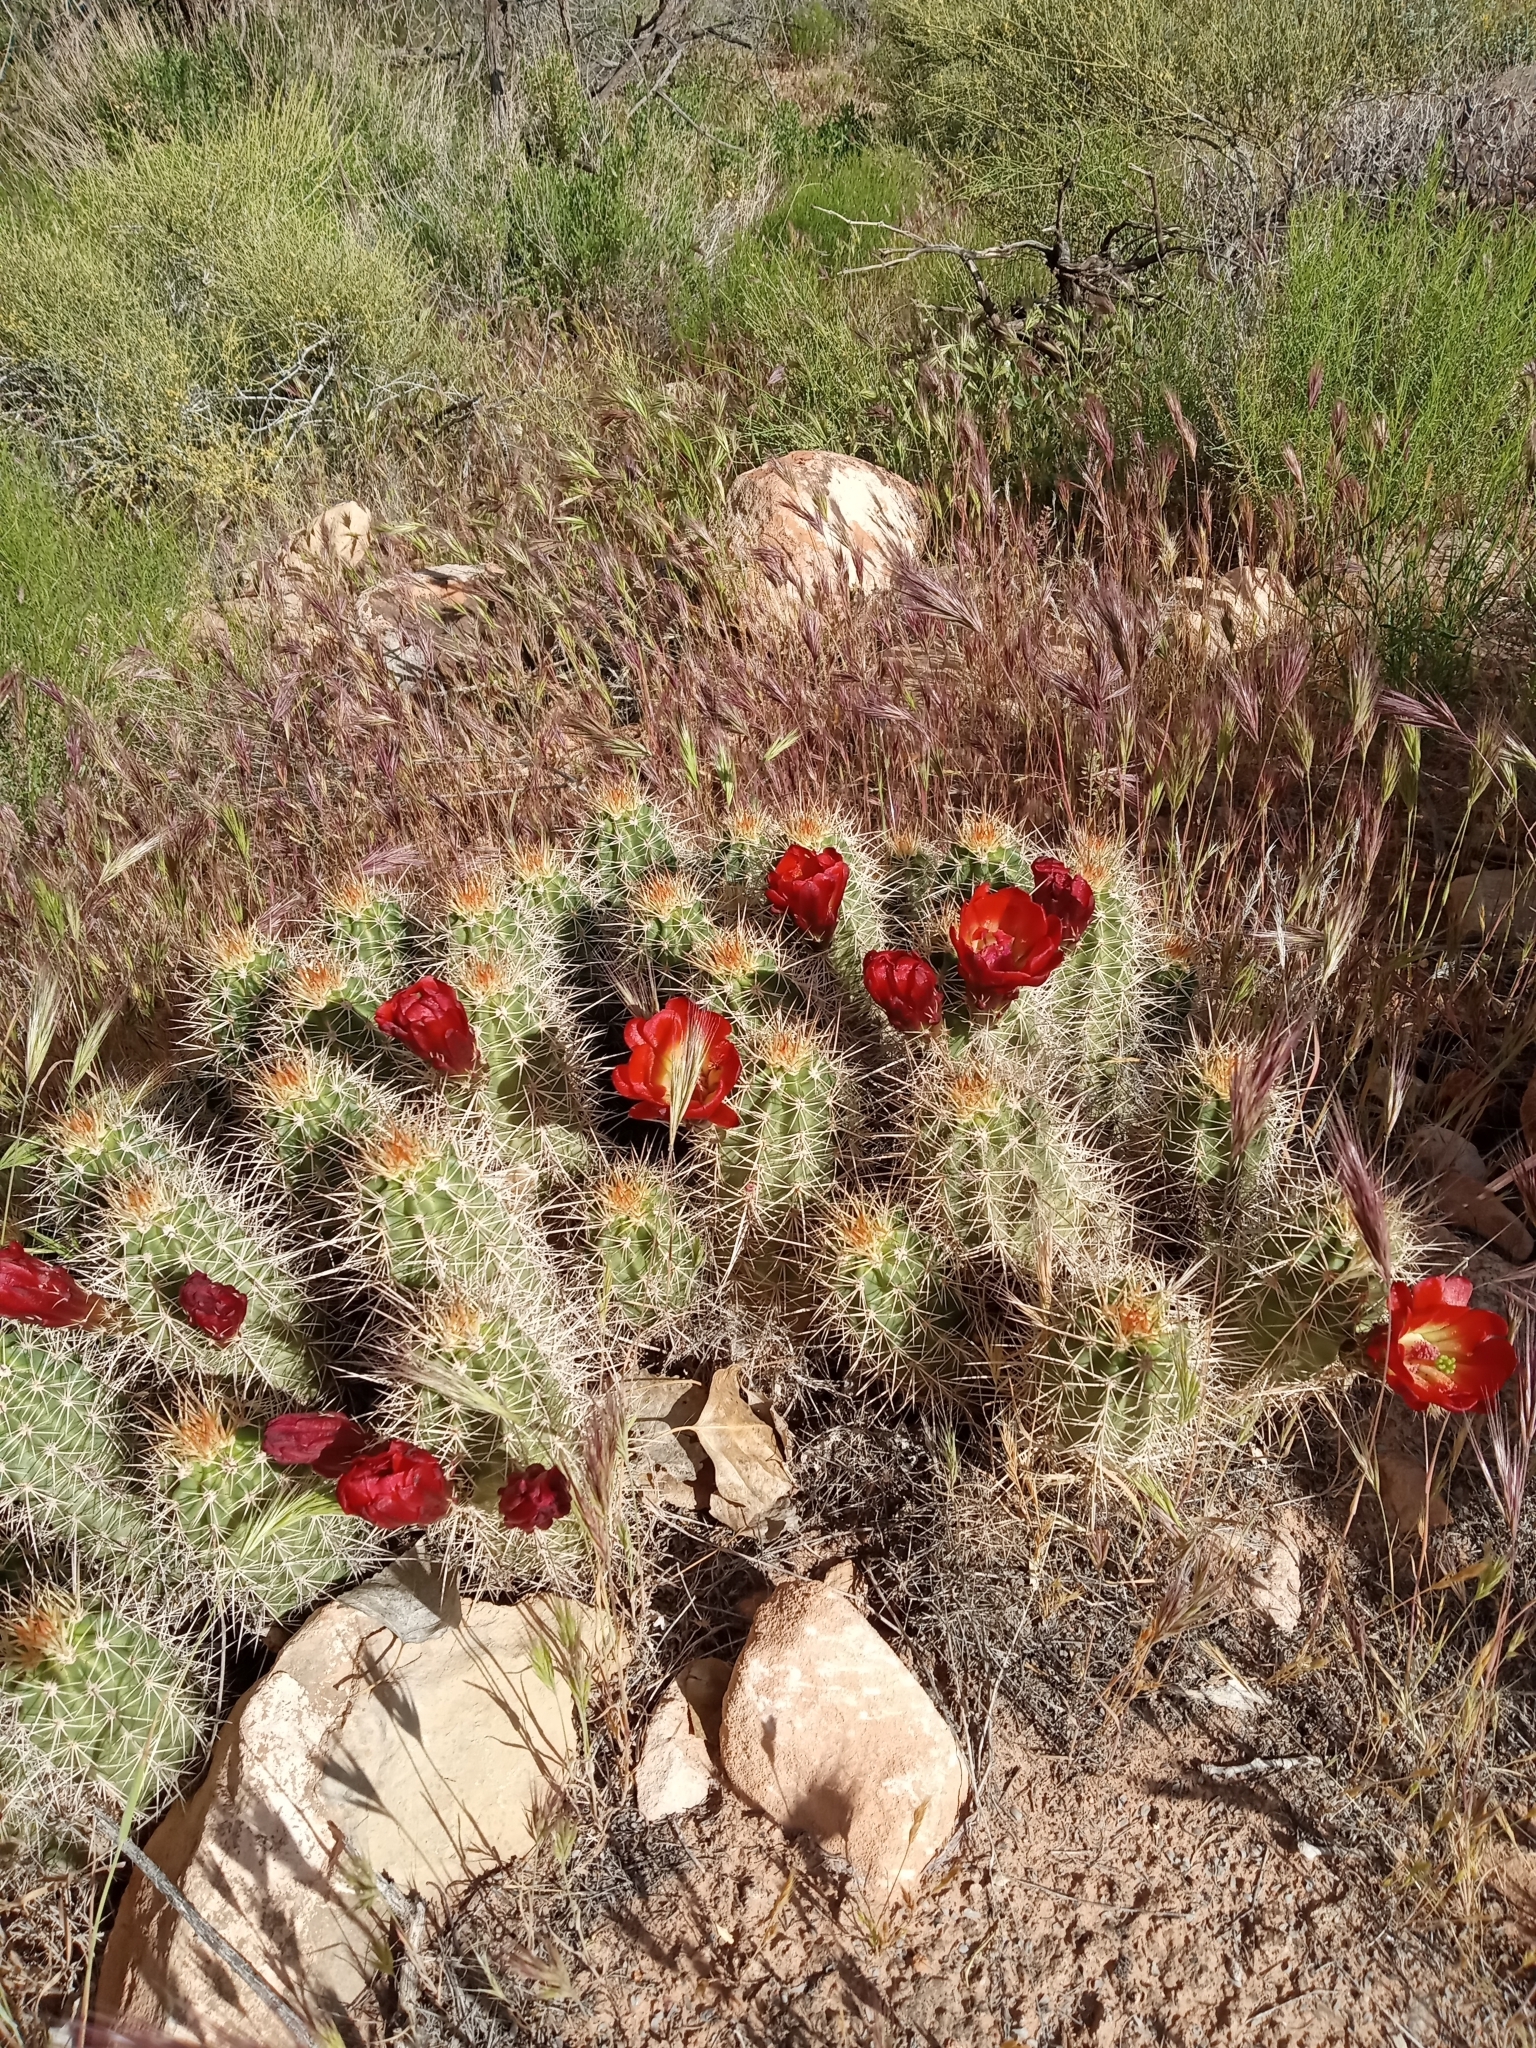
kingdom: Plantae
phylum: Tracheophyta
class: Magnoliopsida
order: Caryophyllales
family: Cactaceae
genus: Echinocereus
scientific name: Echinocereus triglochidiatus
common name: Claretcup hedgehog
